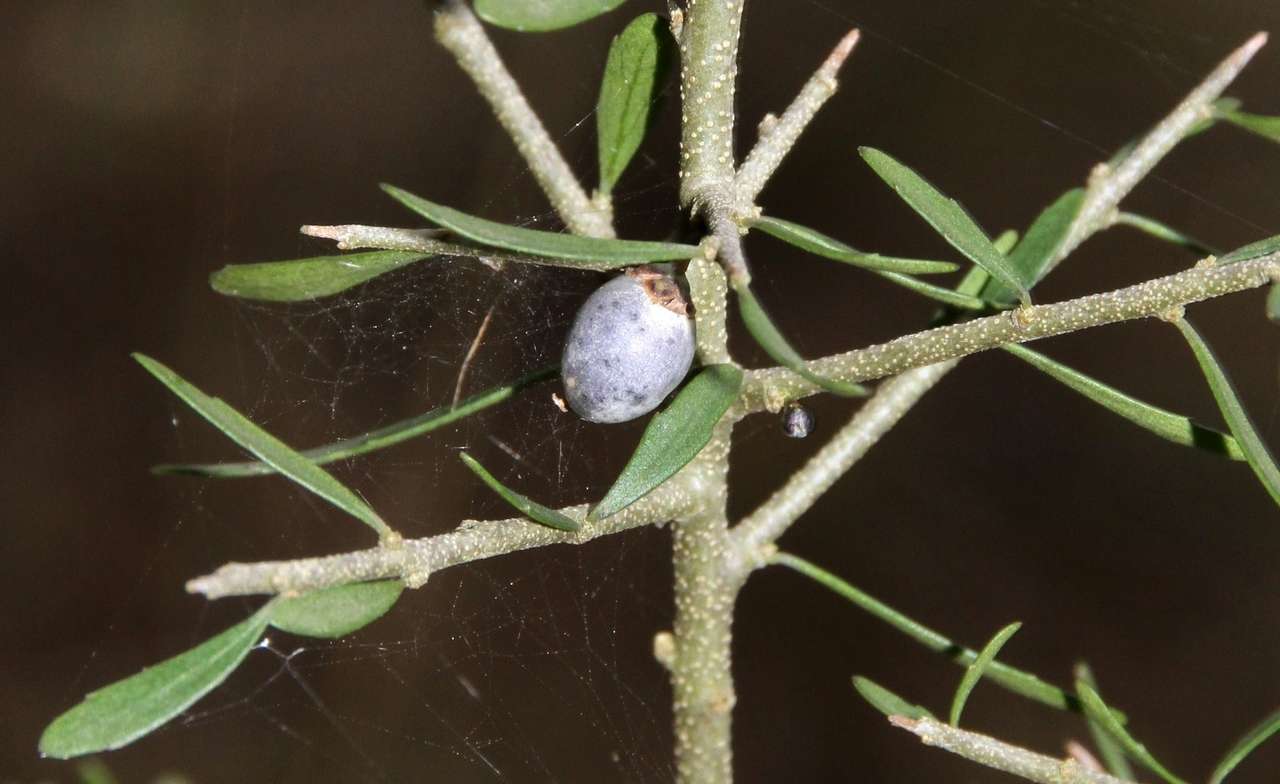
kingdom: Plantae
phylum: Tracheophyta
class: Magnoliopsida
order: Malpighiales
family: Violaceae
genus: Melicytus
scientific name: Melicytus dentatus
